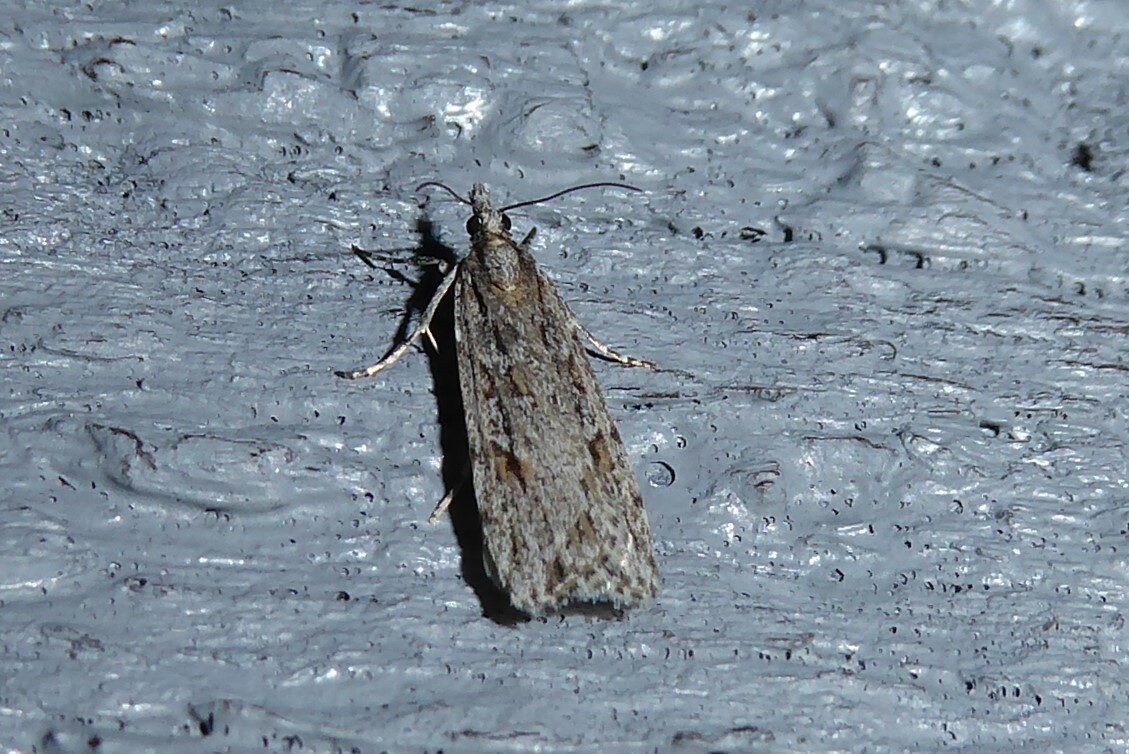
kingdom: Animalia
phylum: Arthropoda
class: Insecta
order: Lepidoptera
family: Crambidae
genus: Scoparia
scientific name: Scoparia chalicodes
